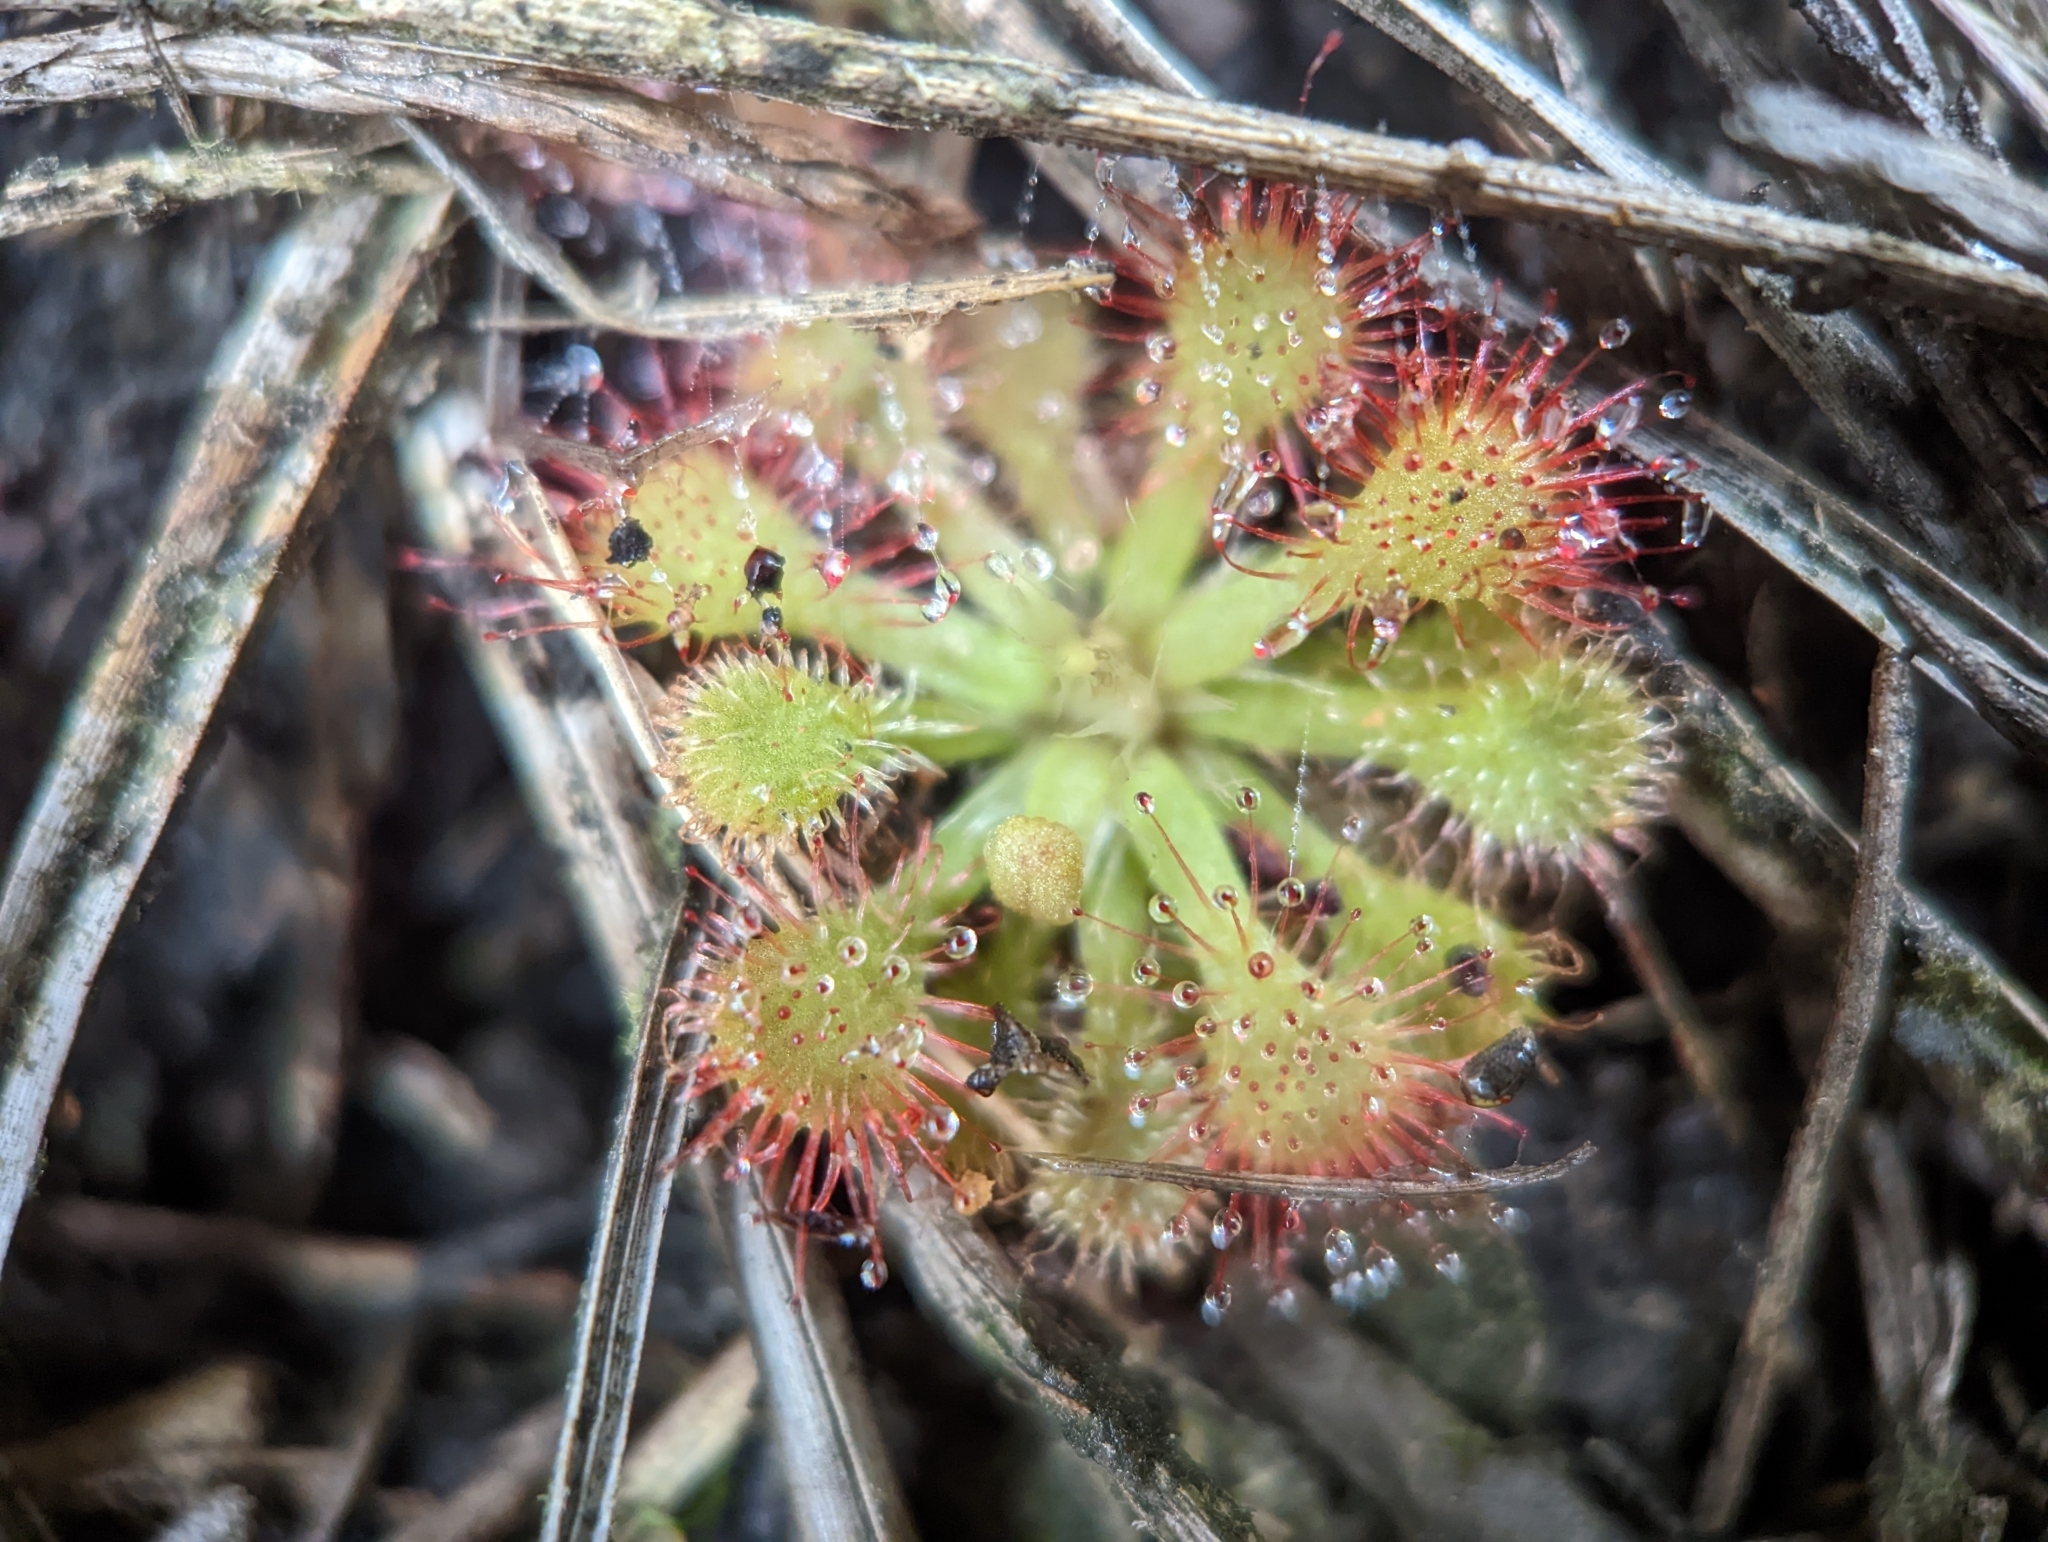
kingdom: Plantae
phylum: Tracheophyta
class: Magnoliopsida
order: Caryophyllales
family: Droseraceae
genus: Drosera
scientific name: Drosera capillaris
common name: Pink sundew
